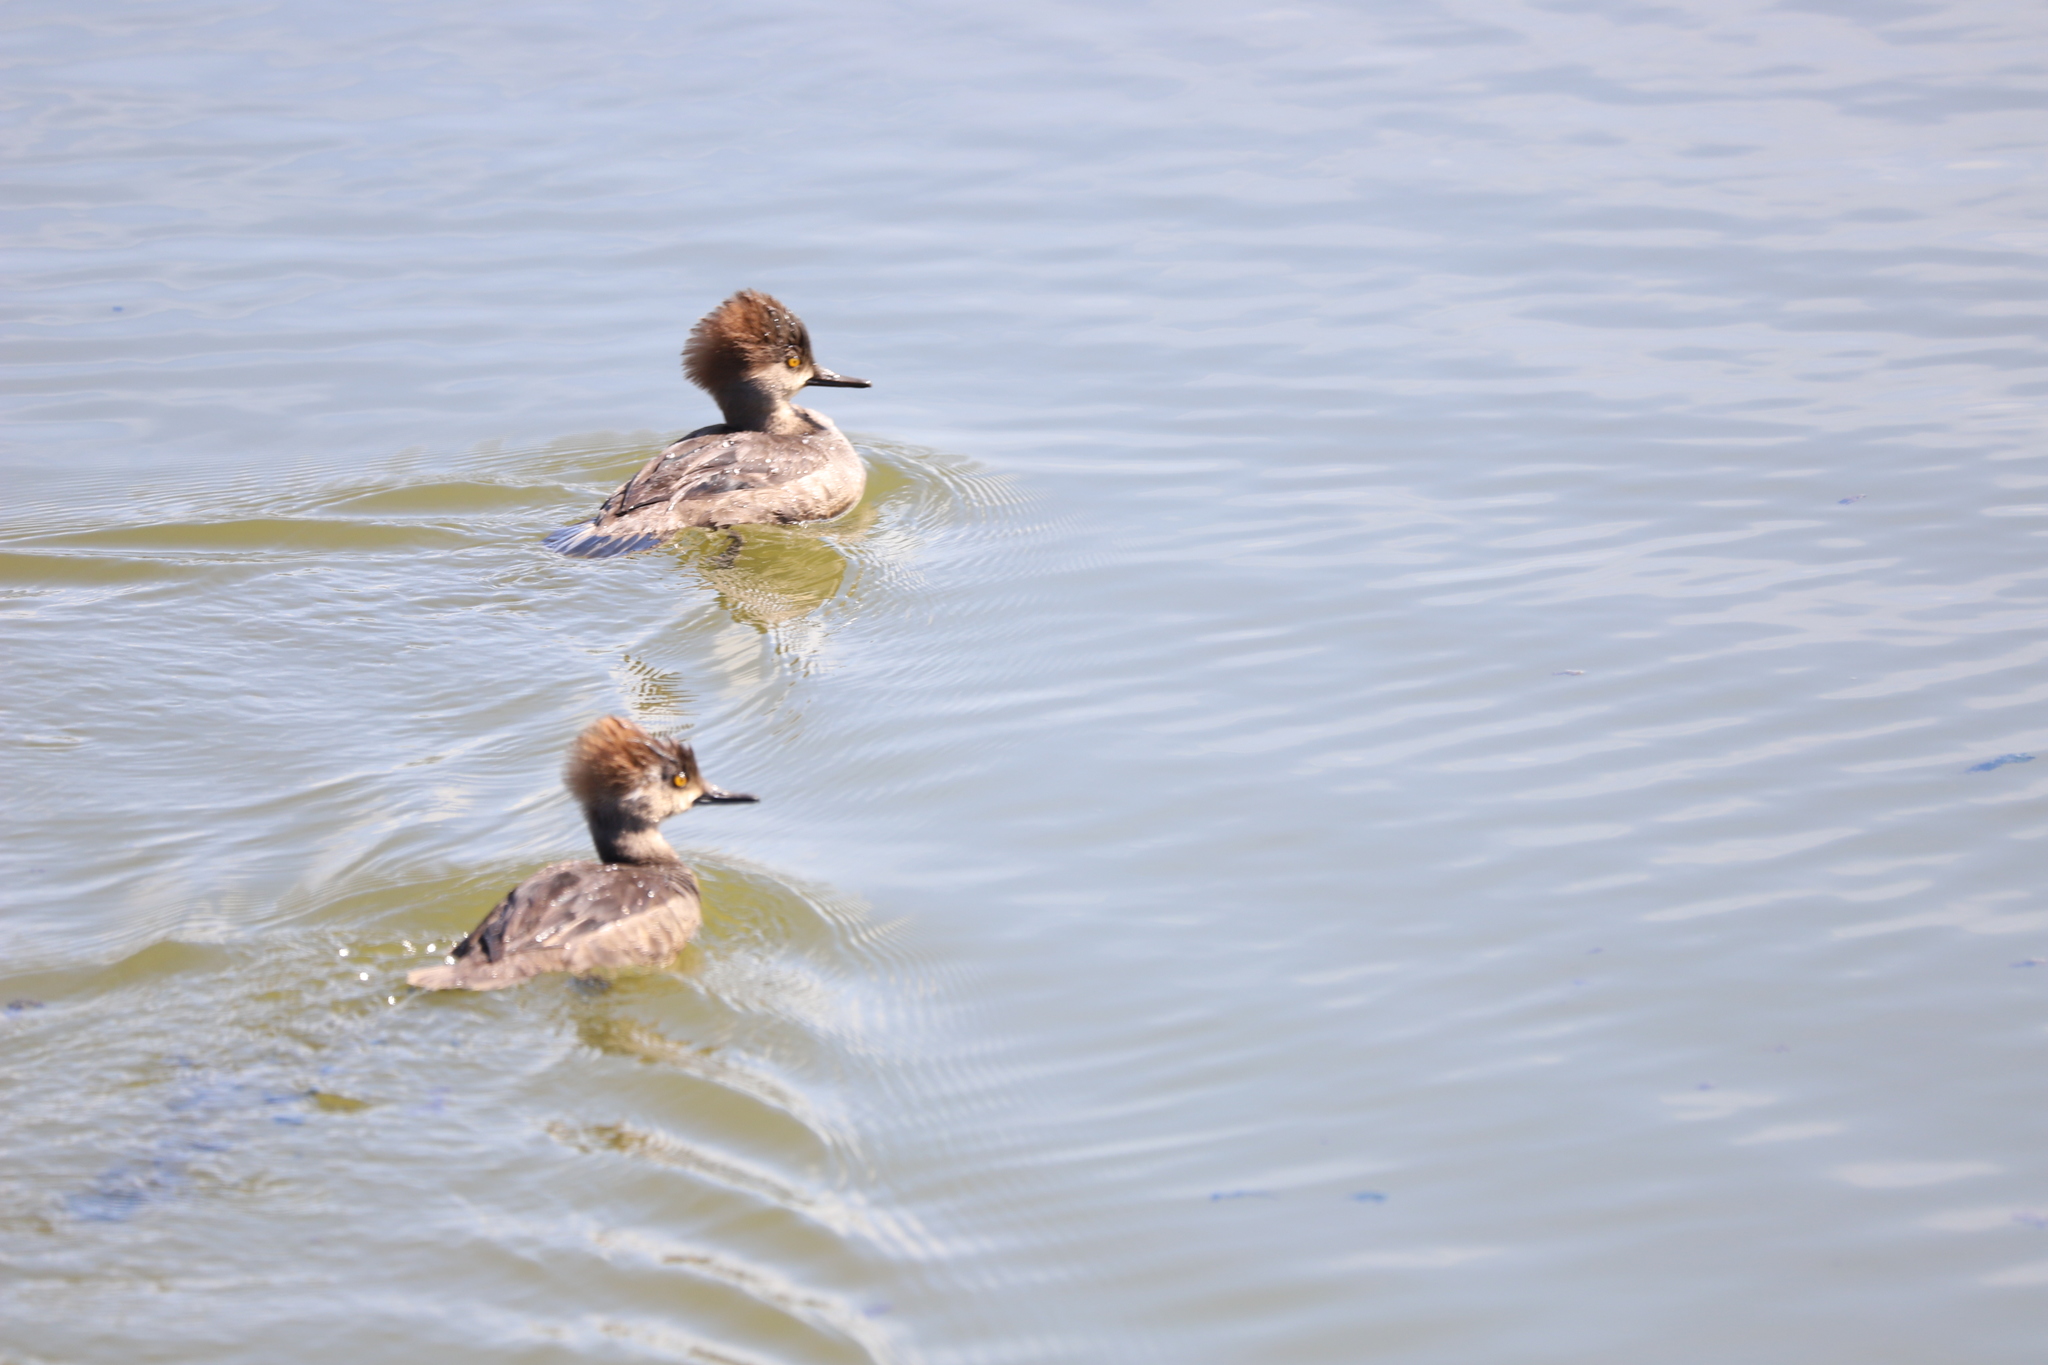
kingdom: Animalia
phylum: Chordata
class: Aves
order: Anseriformes
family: Anatidae
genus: Lophodytes
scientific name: Lophodytes cucullatus
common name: Hooded merganser
